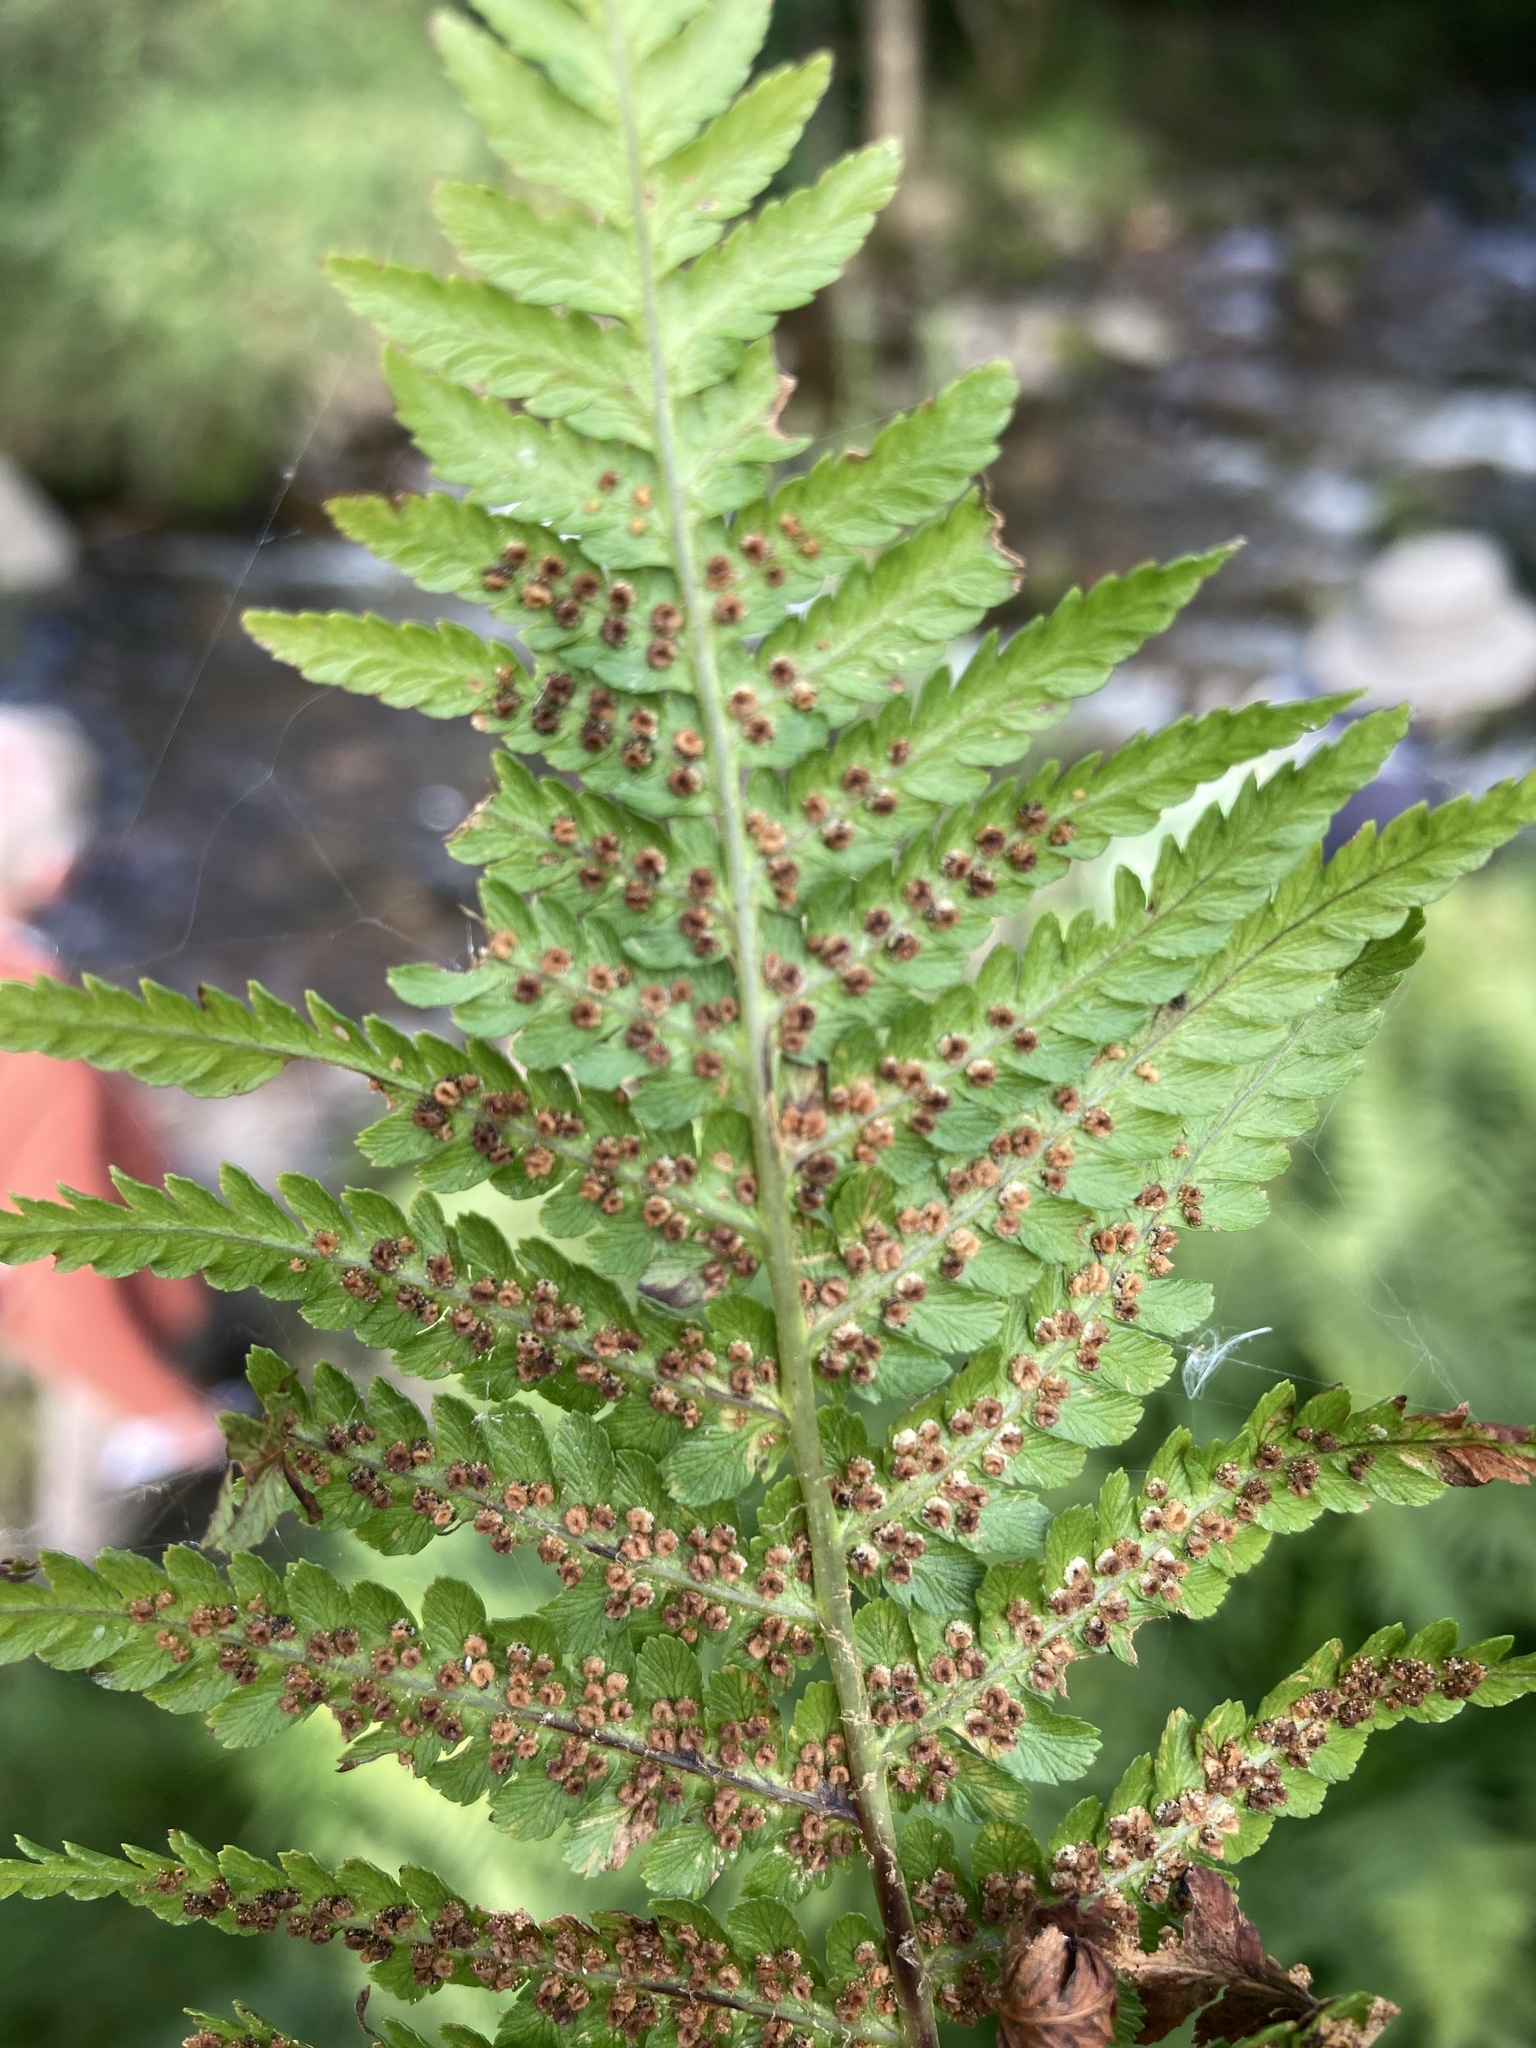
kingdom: Plantae
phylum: Tracheophyta
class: Polypodiopsida
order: Polypodiales
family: Dryopteridaceae
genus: Dryopteris
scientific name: Dryopteris filix-mas
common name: Male fern
